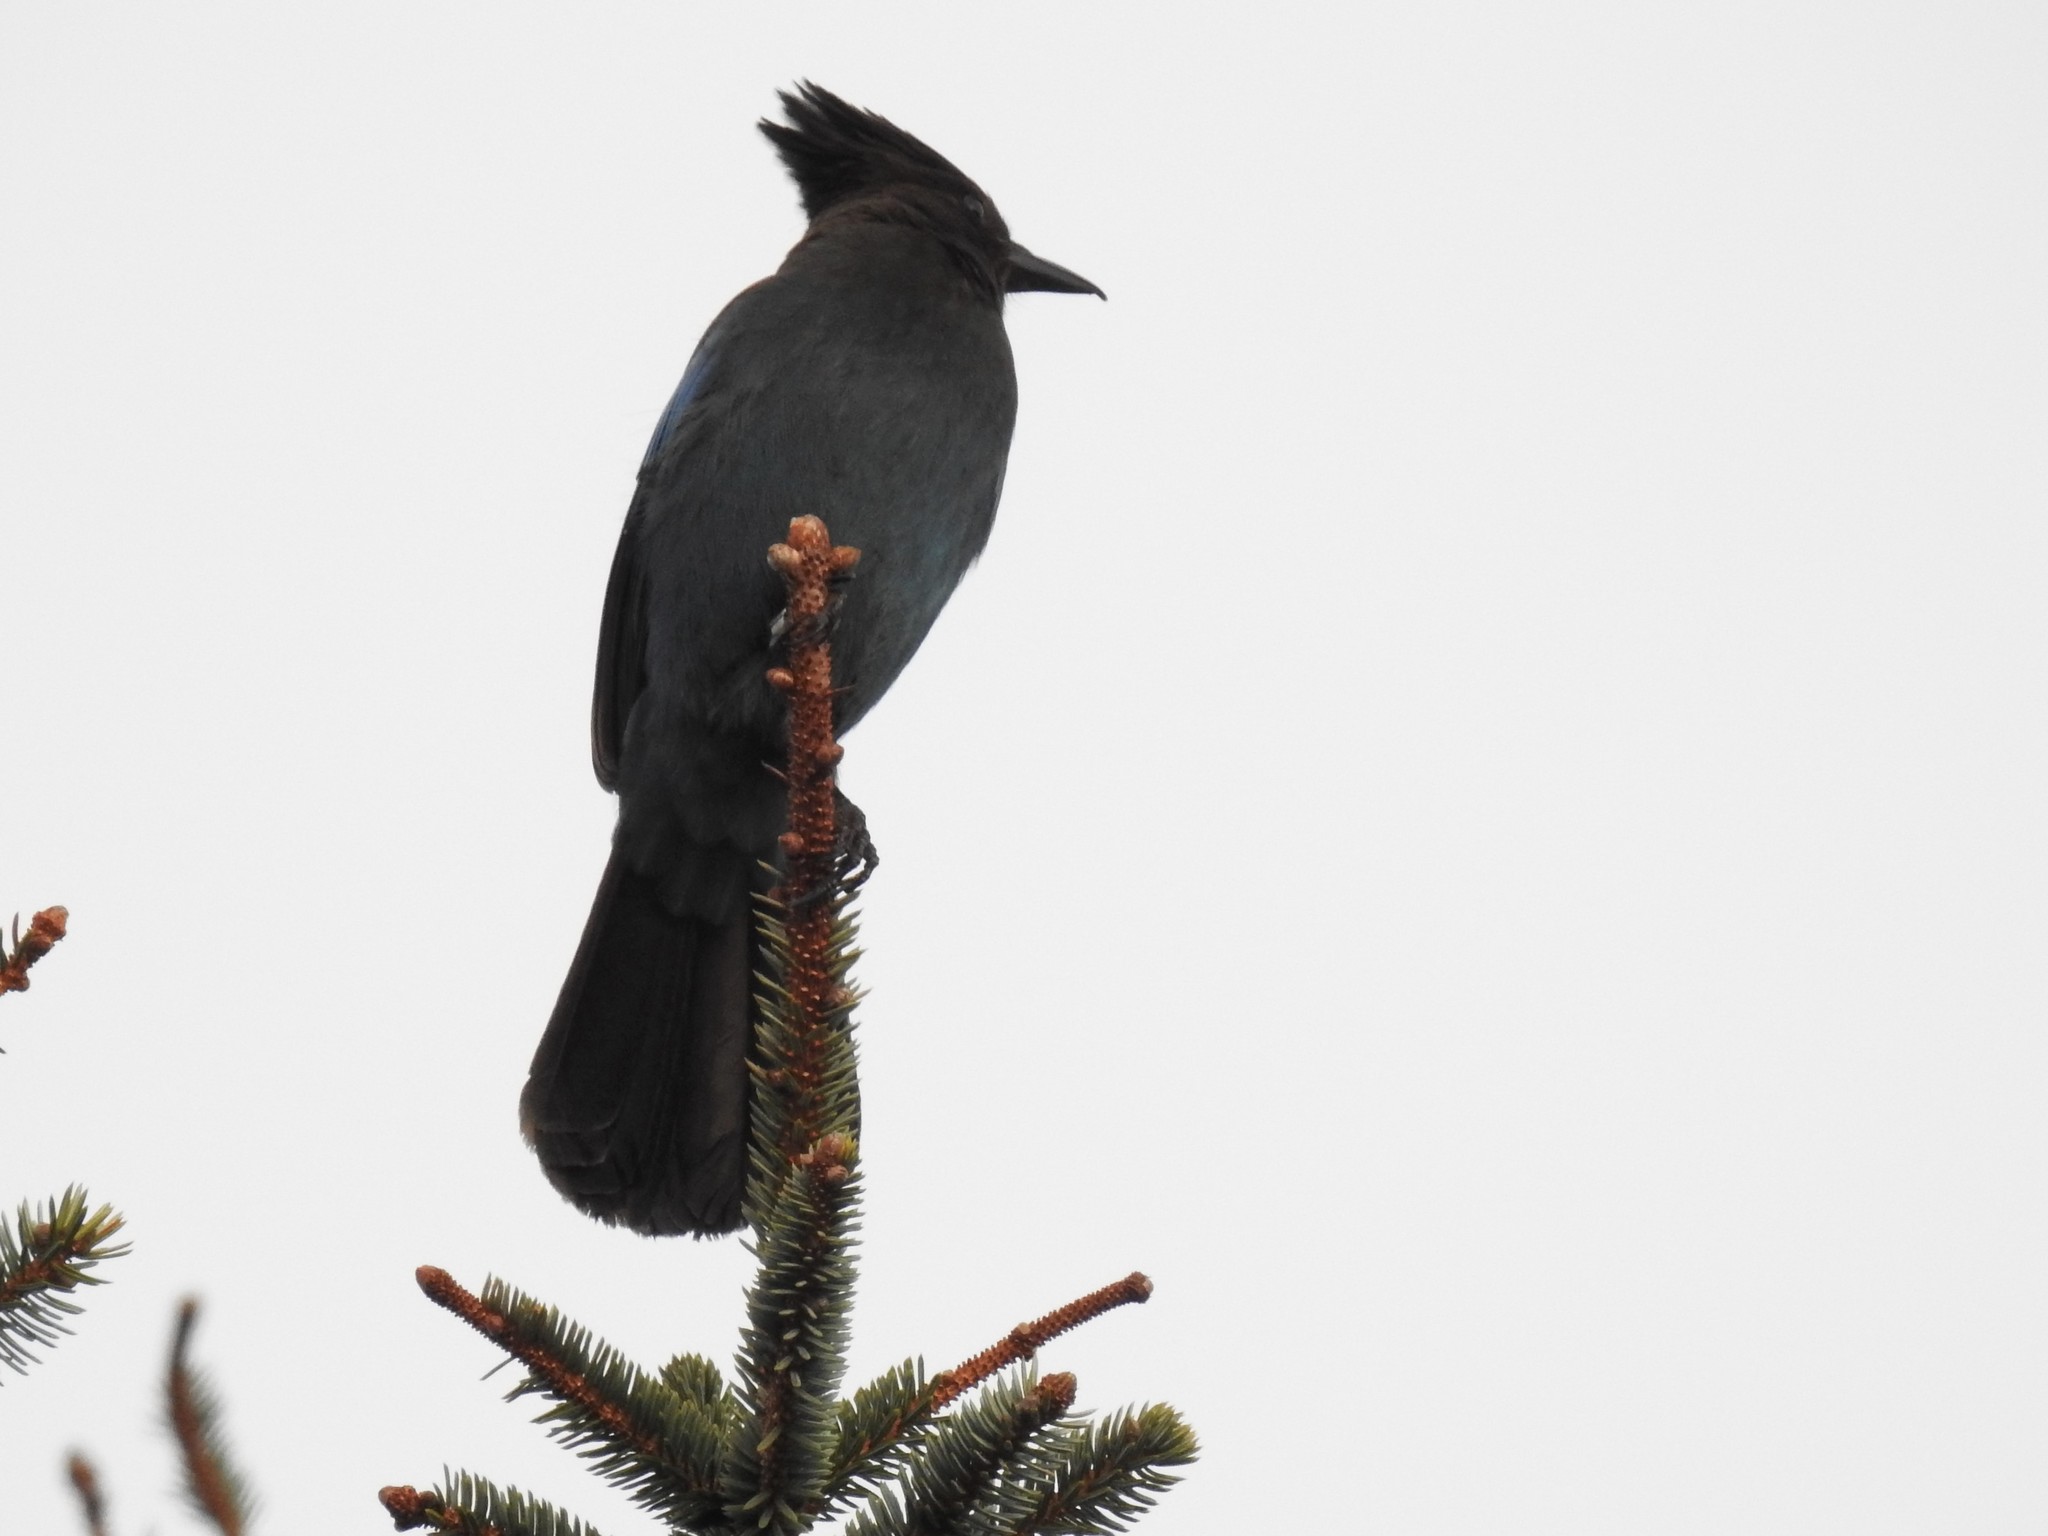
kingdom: Animalia
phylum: Chordata
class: Aves
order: Passeriformes
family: Corvidae
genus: Cyanocitta
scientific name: Cyanocitta stelleri
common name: Steller's jay
